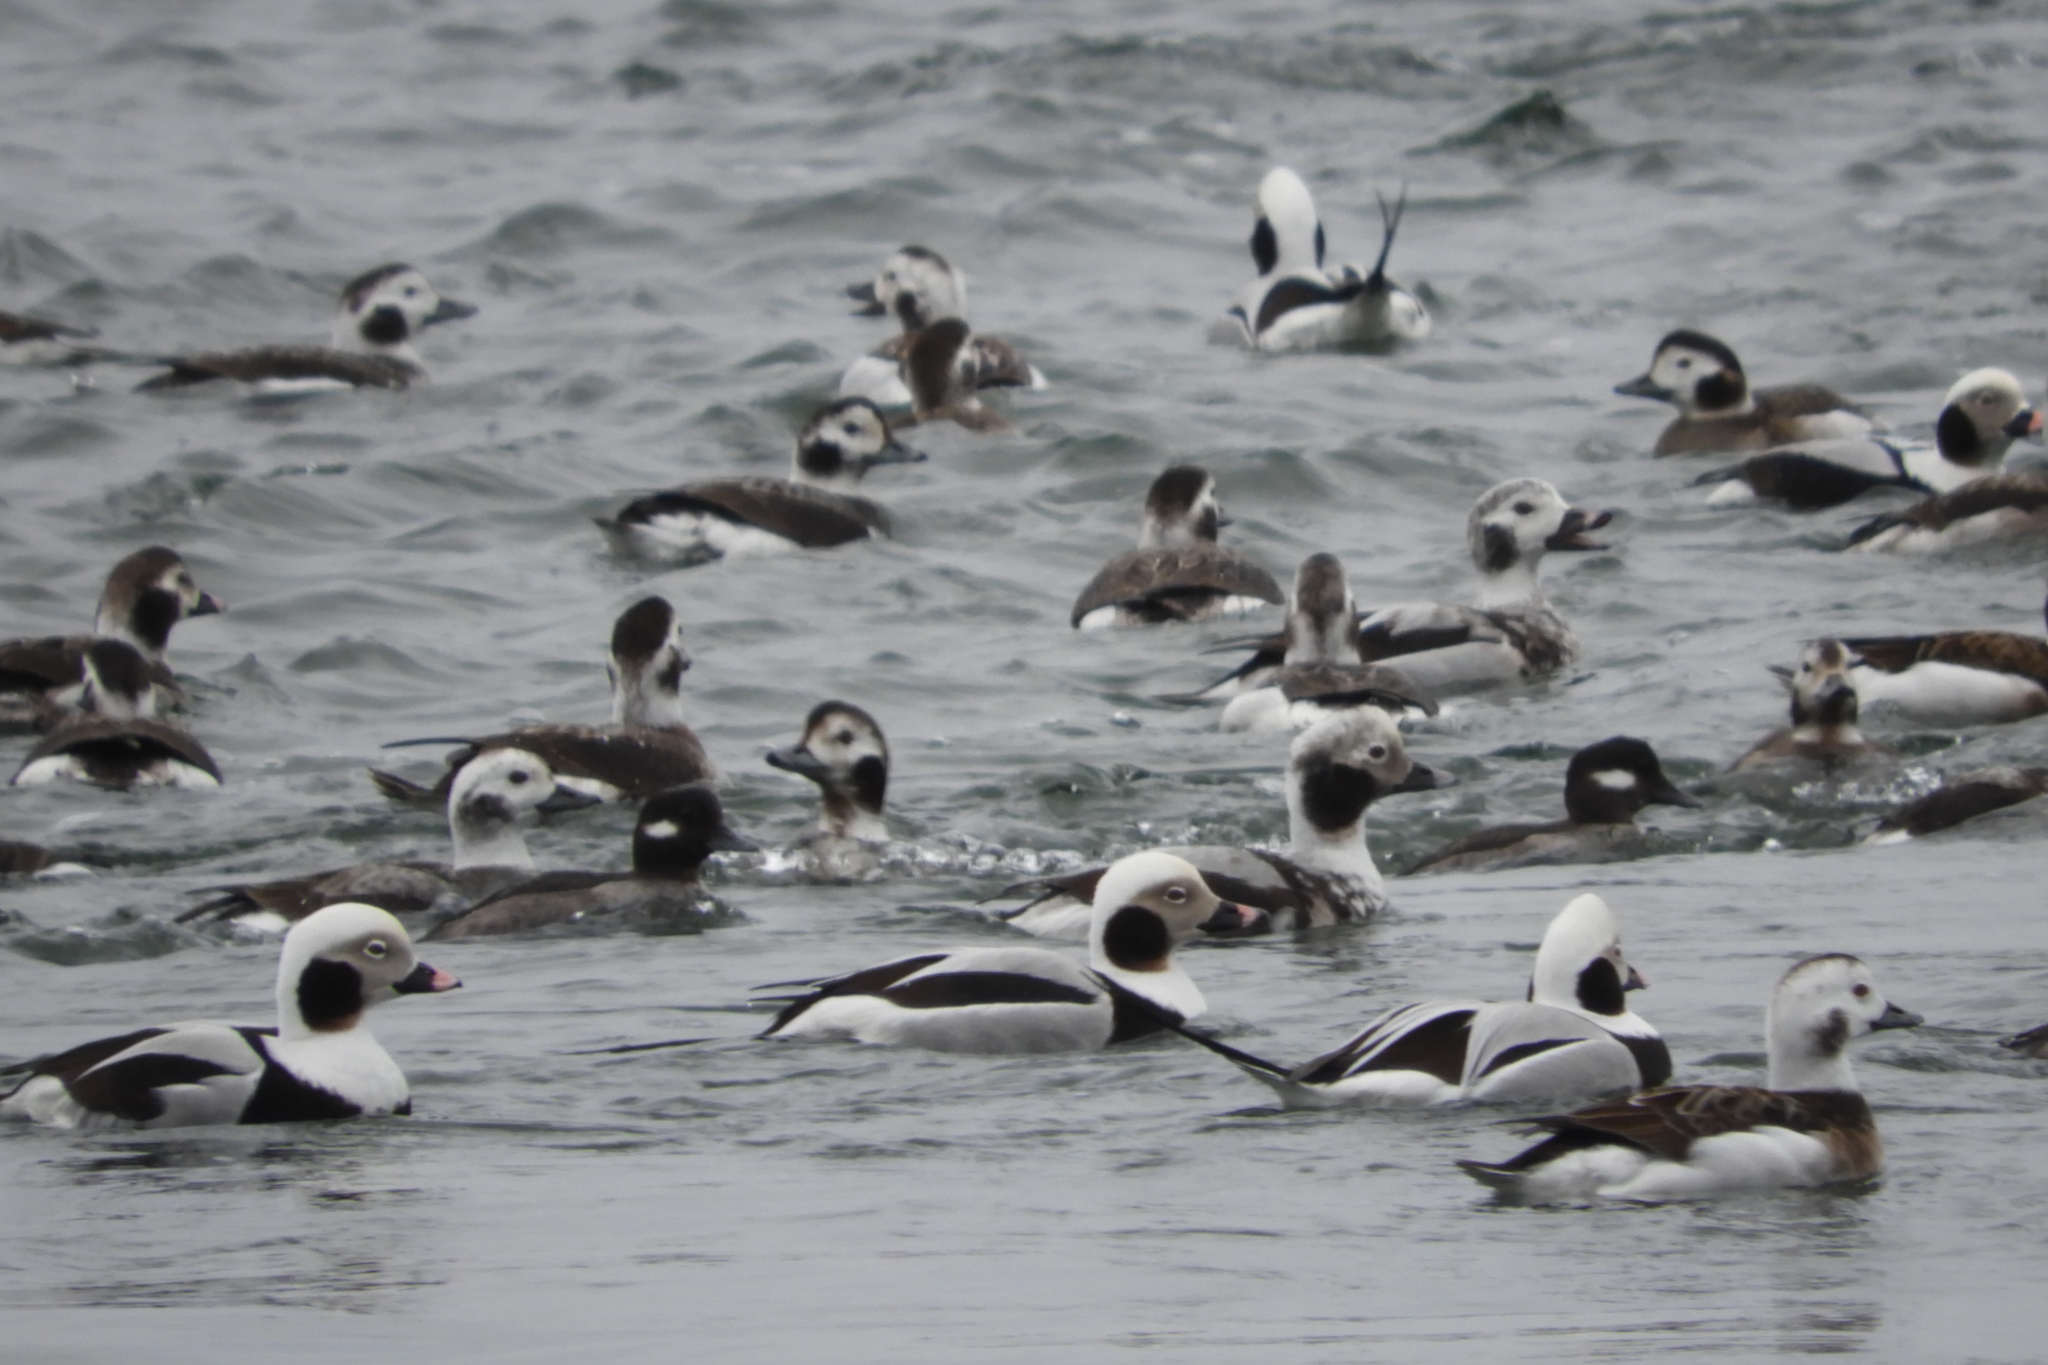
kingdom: Animalia
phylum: Chordata
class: Aves
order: Anseriformes
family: Anatidae
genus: Clangula
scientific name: Clangula hyemalis
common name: Long-tailed duck
